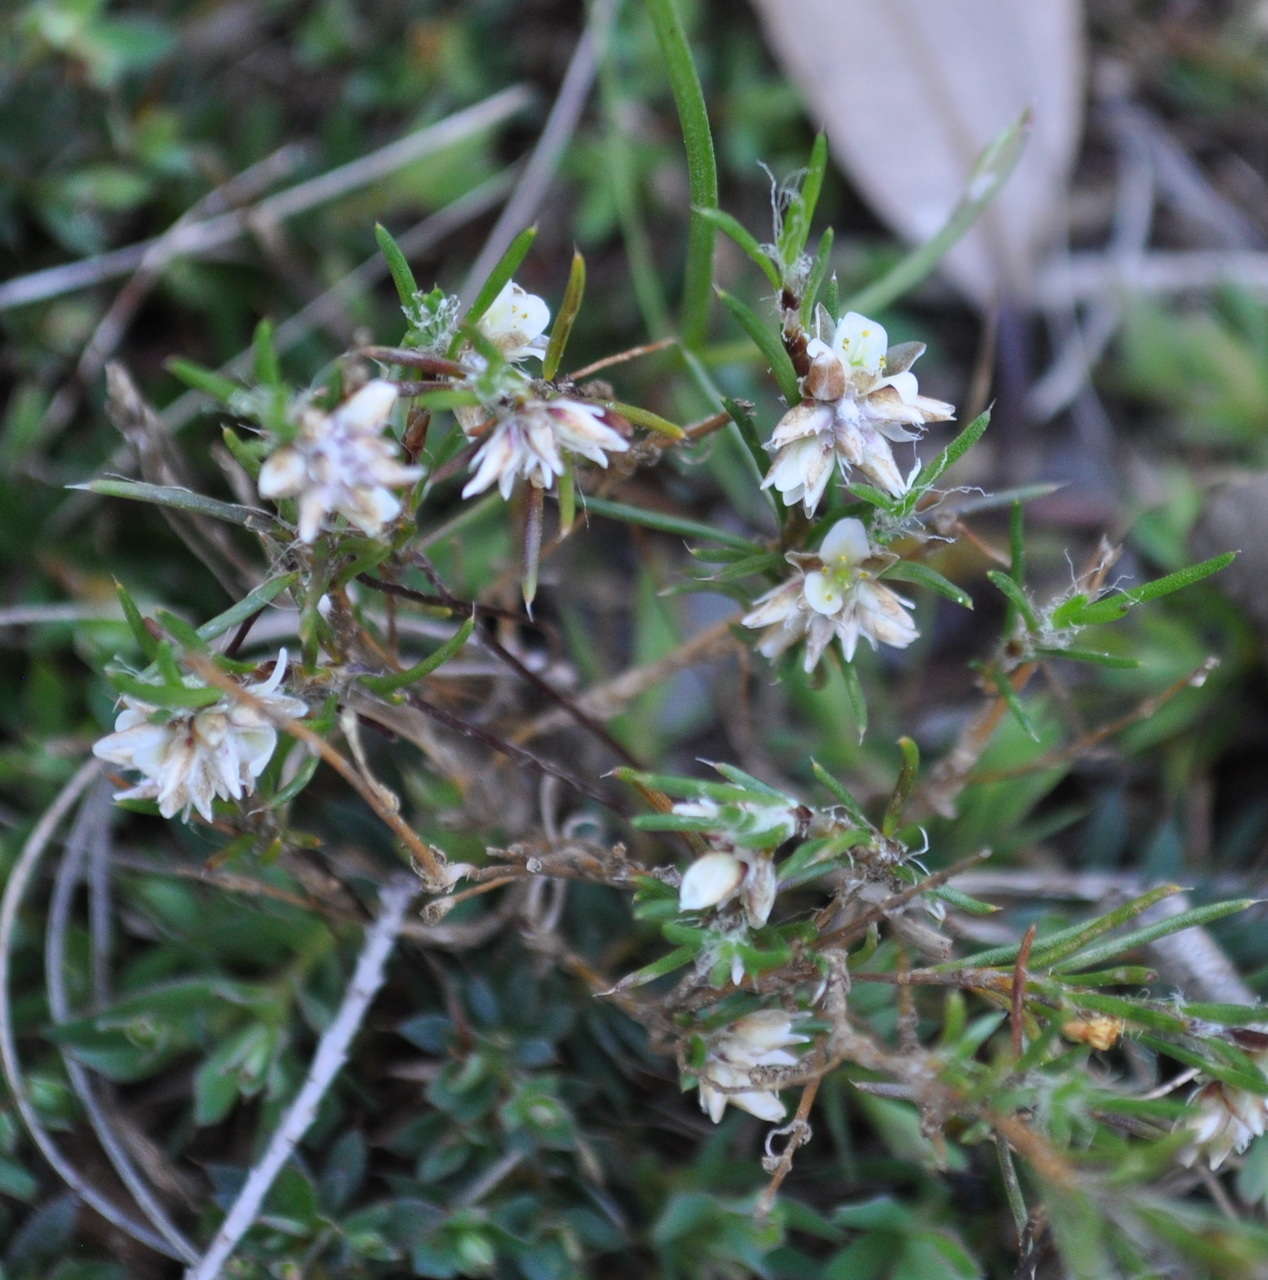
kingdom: Plantae
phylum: Tracheophyta
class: Liliopsida
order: Asparagales
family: Asparagaceae
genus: Laxmannia
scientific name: Laxmannia orientalis
